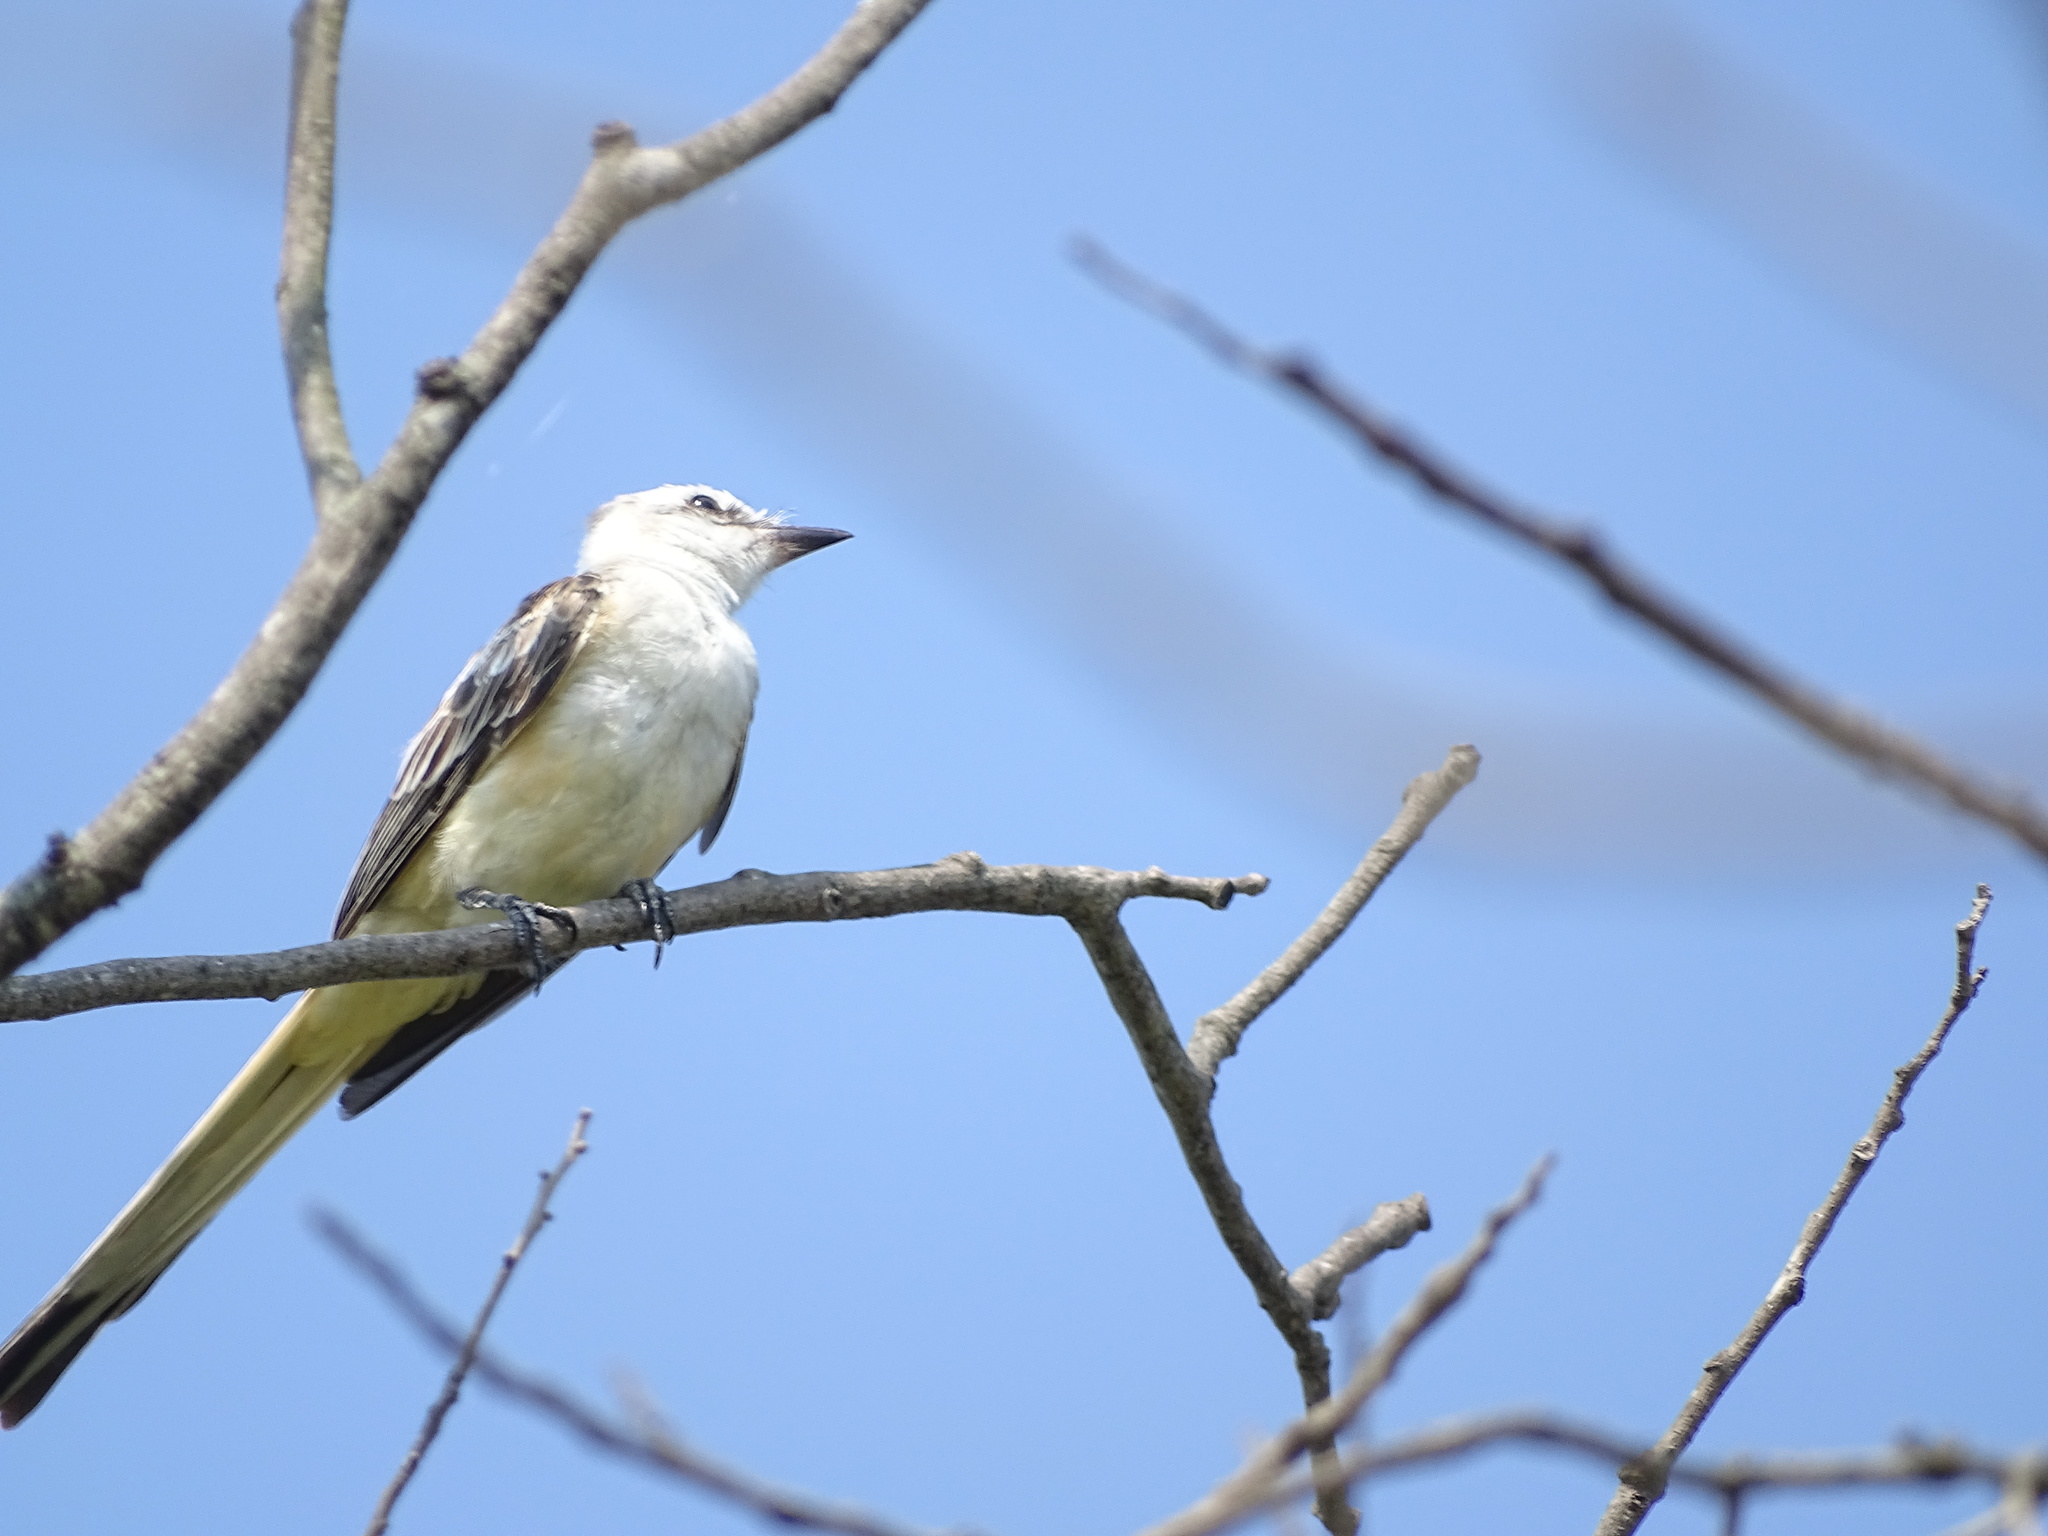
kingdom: Animalia
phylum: Chordata
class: Aves
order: Passeriformes
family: Tyrannidae
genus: Tyrannus
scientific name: Tyrannus forficatus
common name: Scissor-tailed flycatcher
